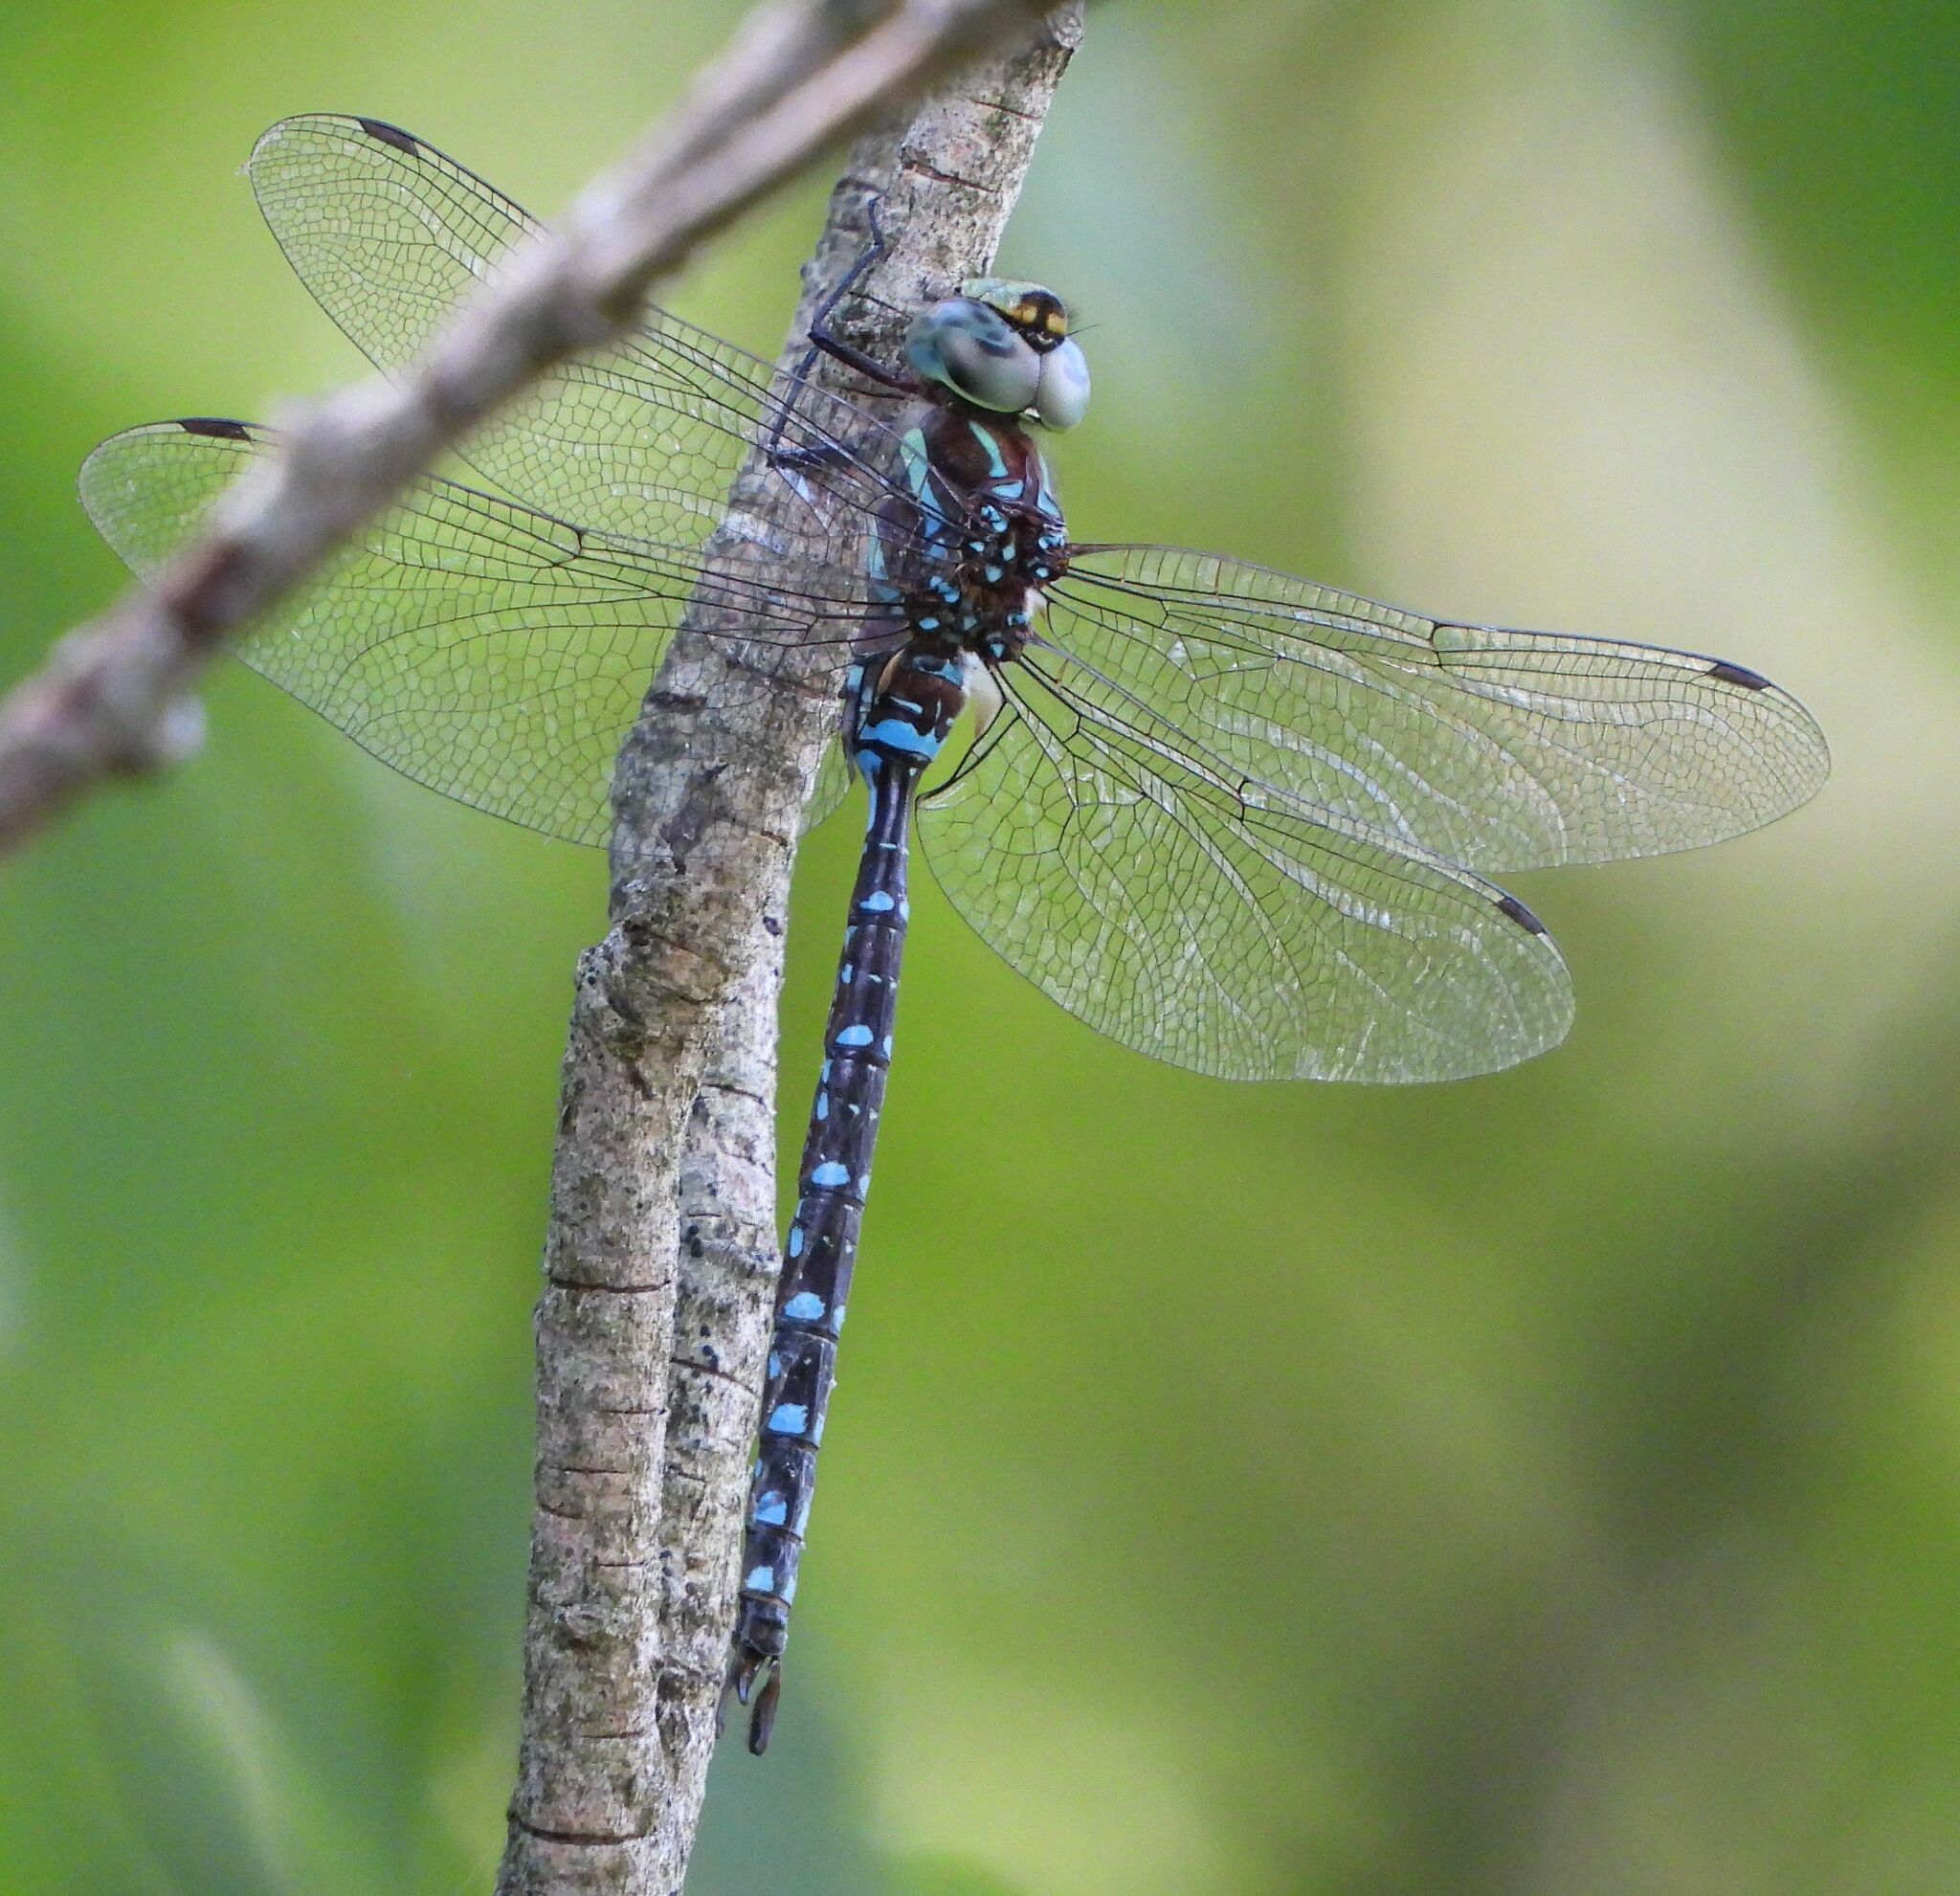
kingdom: Animalia
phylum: Arthropoda
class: Insecta
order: Odonata
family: Aeshnidae
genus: Aeshna
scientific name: Aeshna tuberculifera
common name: Aeschne à tubercules
